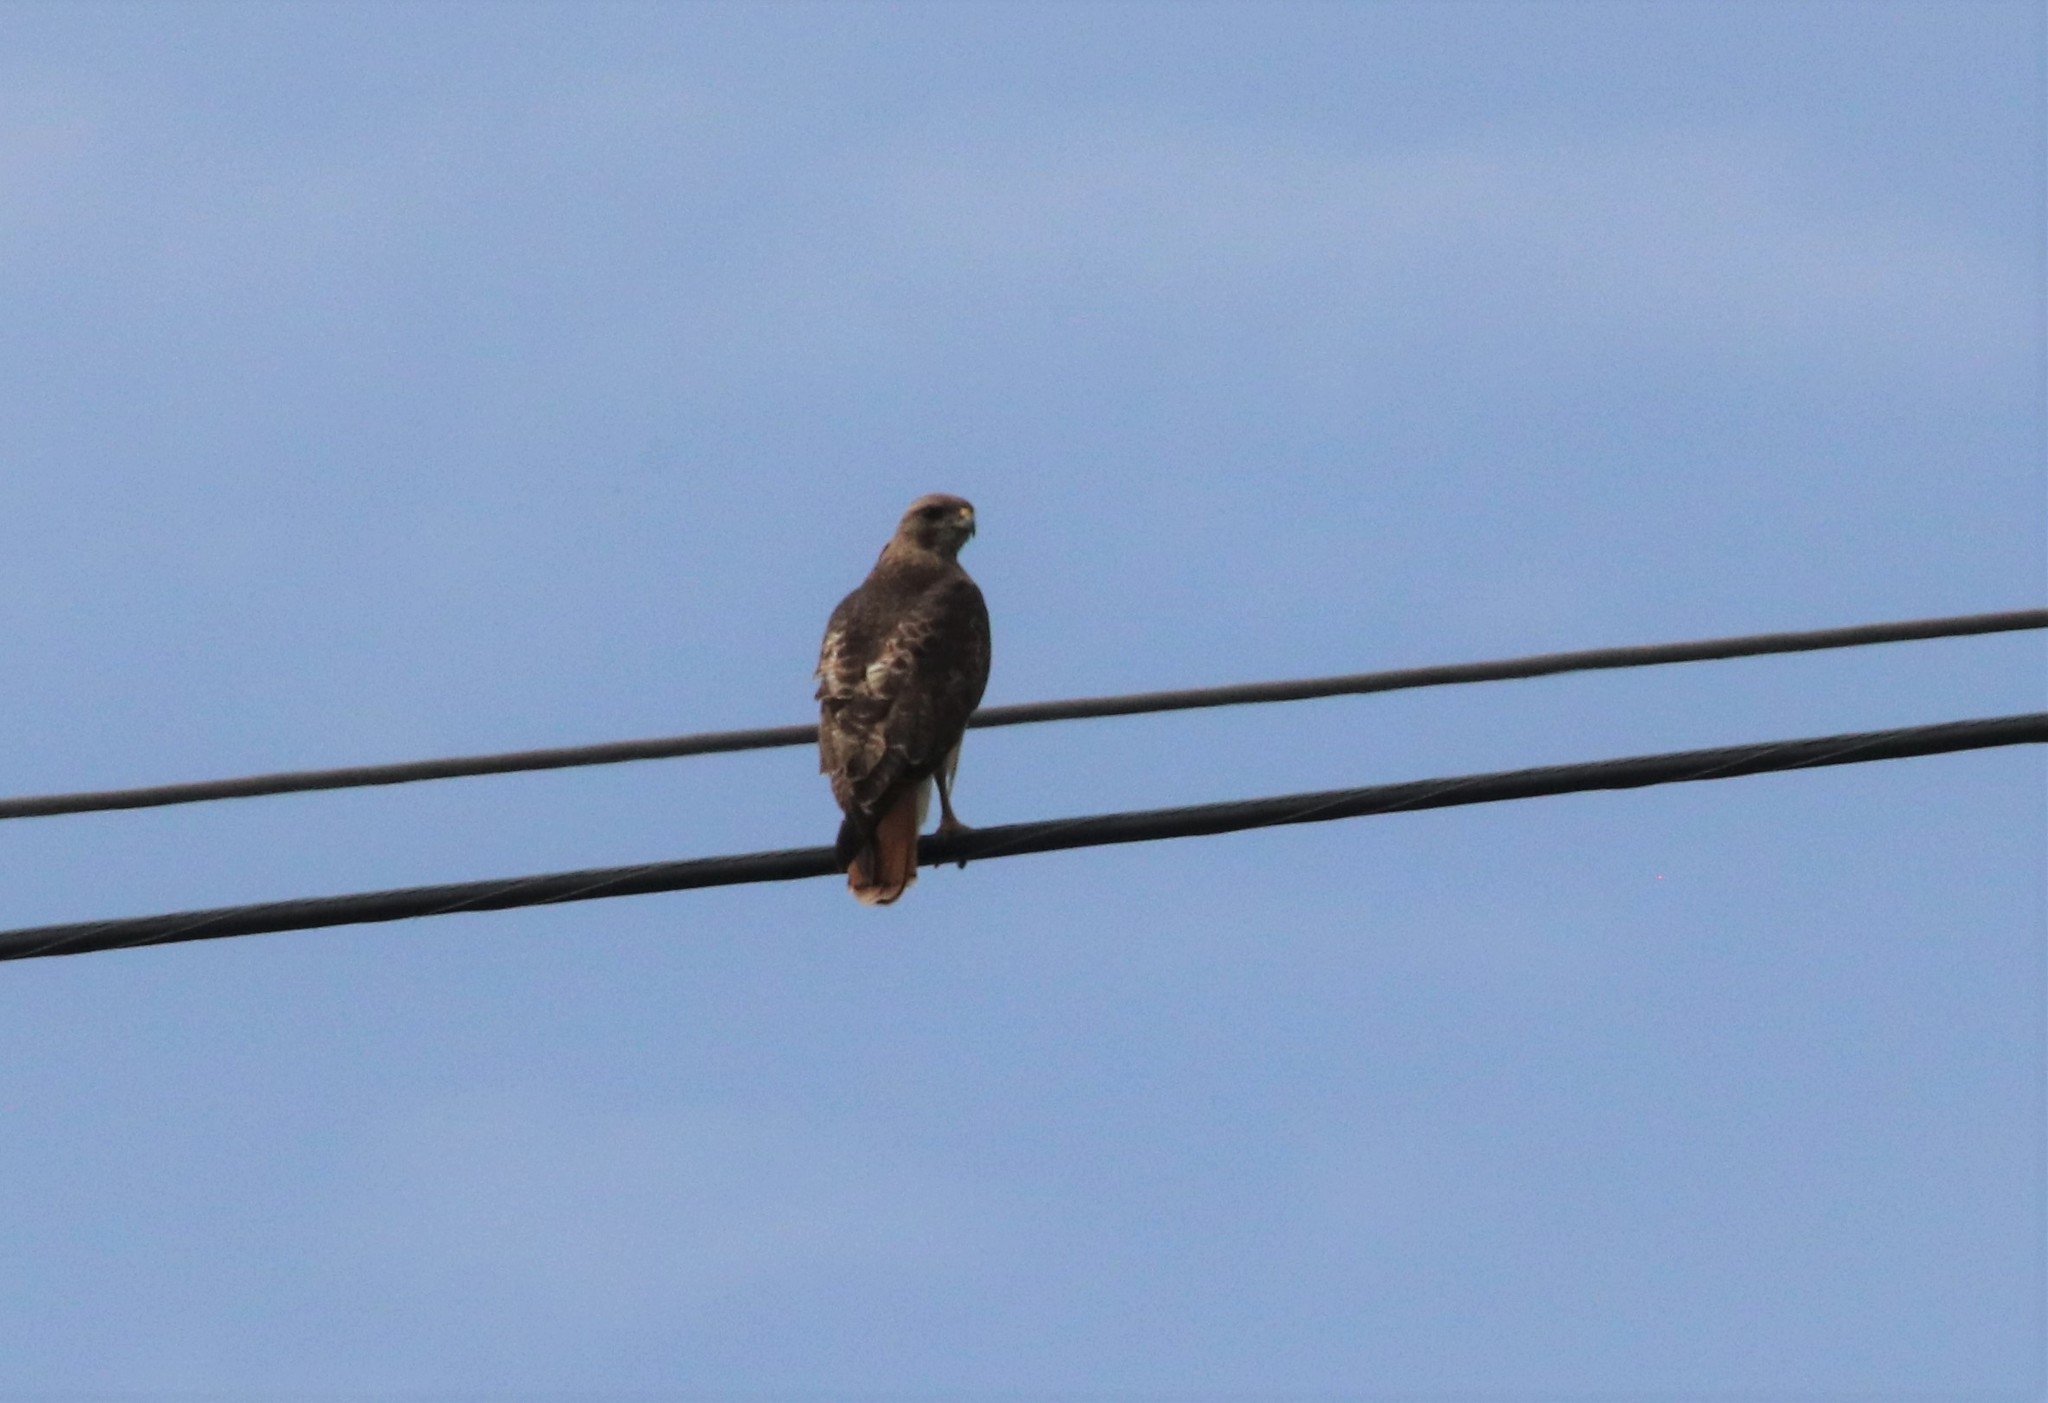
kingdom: Animalia
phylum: Chordata
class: Aves
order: Accipitriformes
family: Accipitridae
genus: Buteo
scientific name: Buteo jamaicensis
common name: Red-tailed hawk
